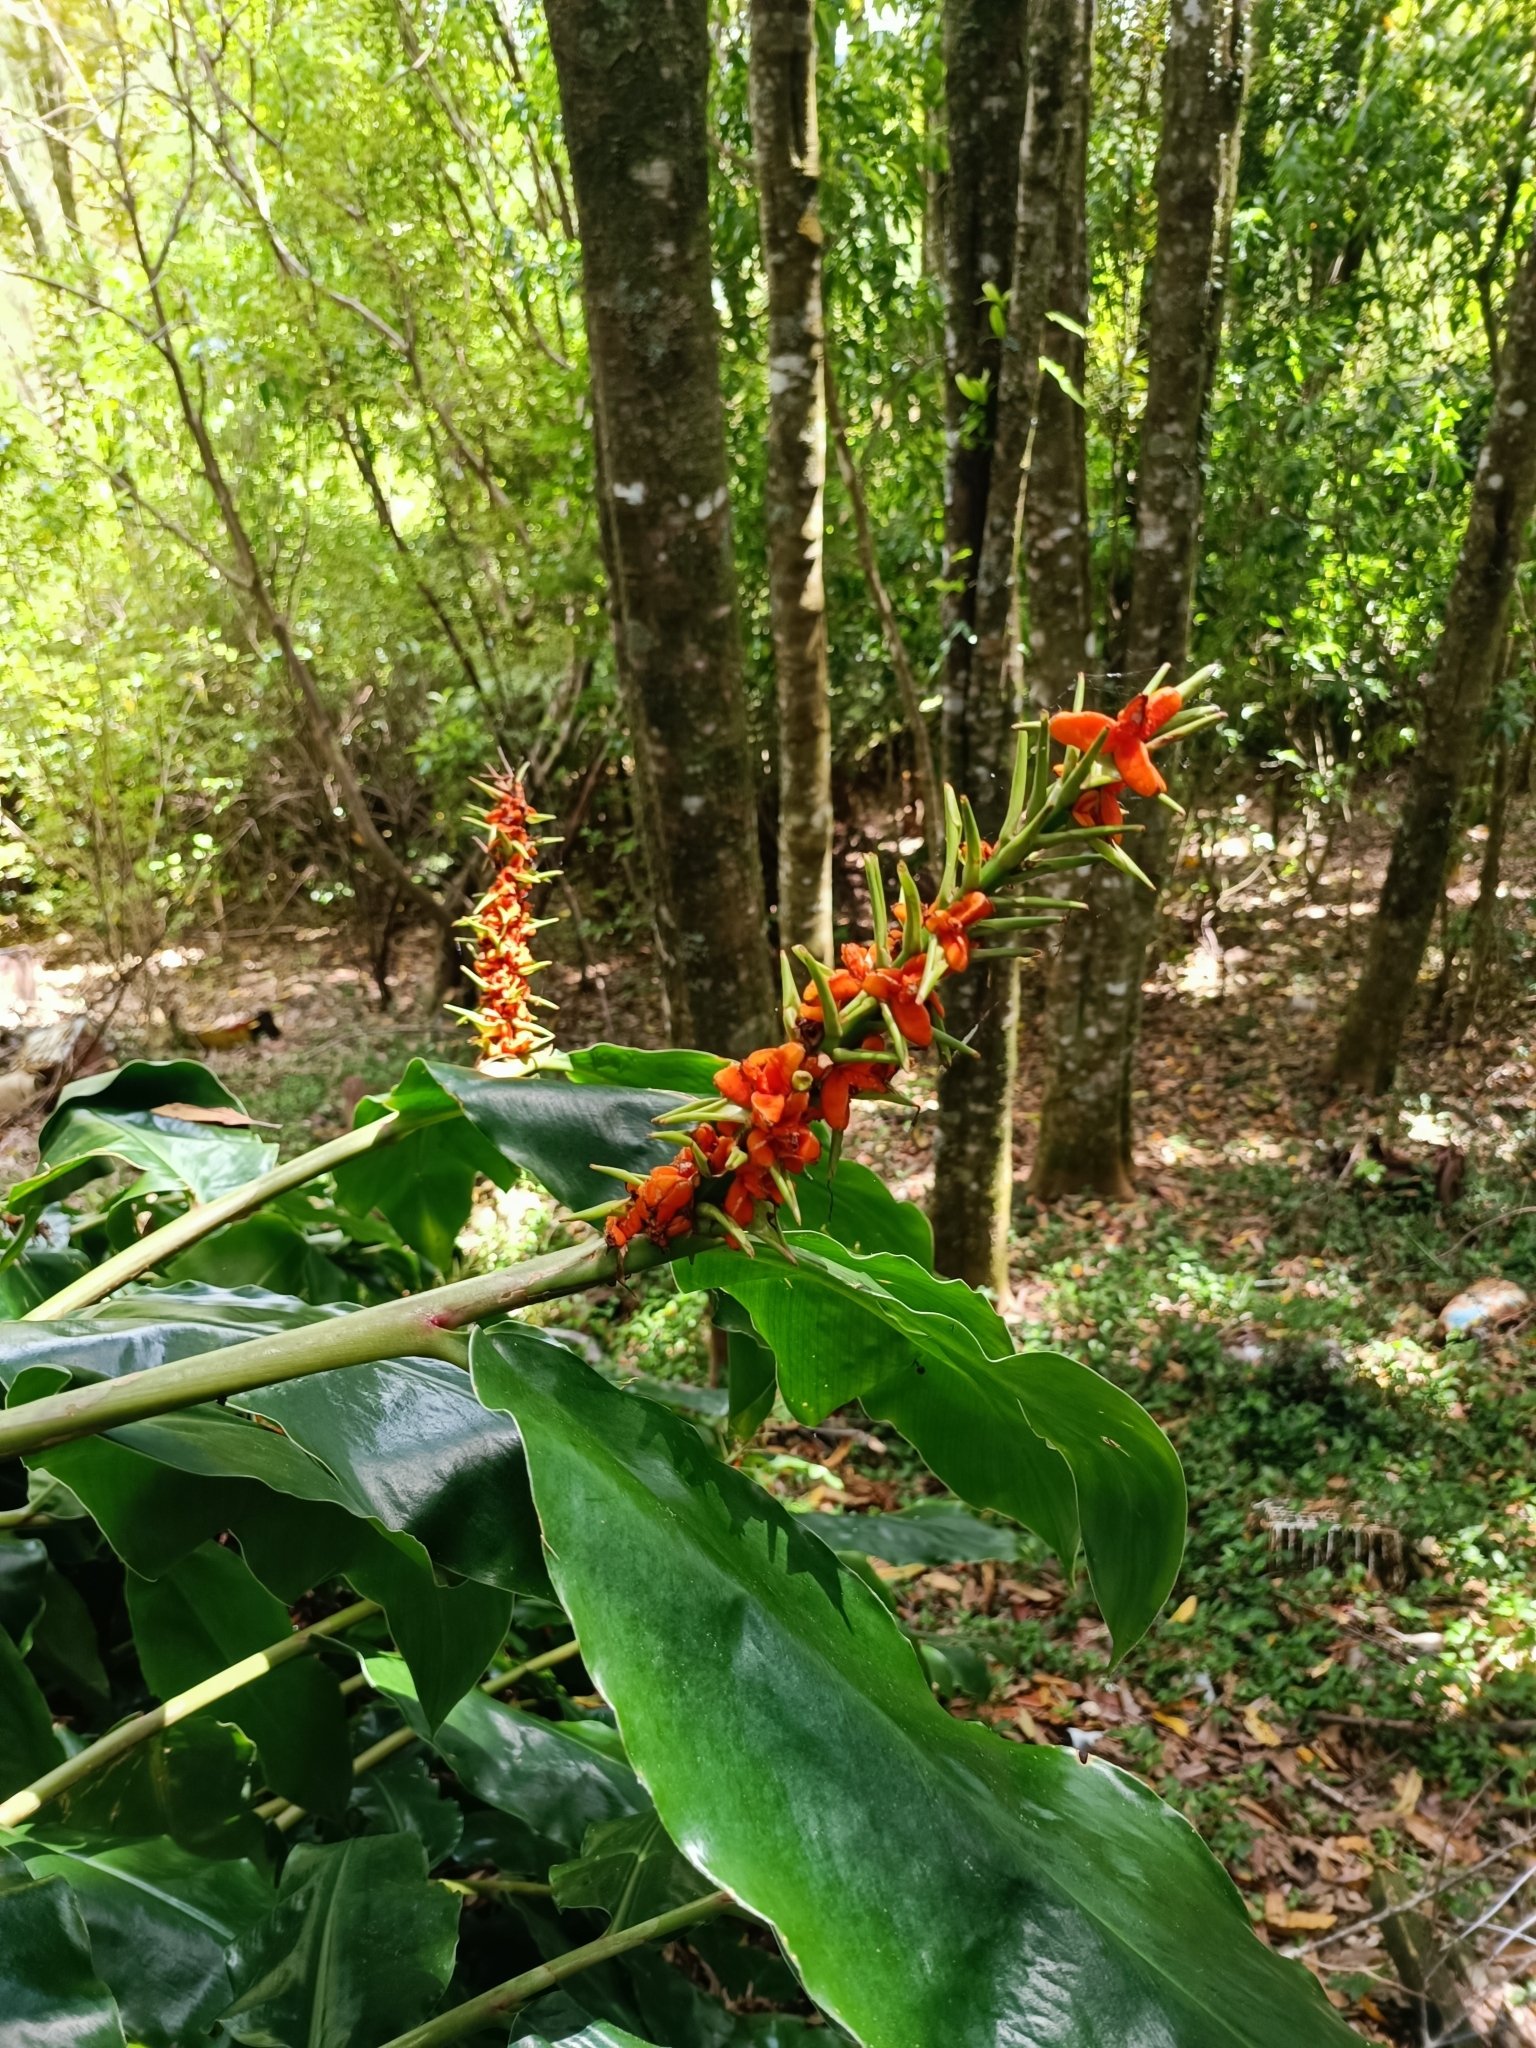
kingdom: Plantae
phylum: Tracheophyta
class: Liliopsida
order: Zingiberales
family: Zingiberaceae
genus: Hedychium
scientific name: Hedychium gardnerianum
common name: Himalayan ginger
